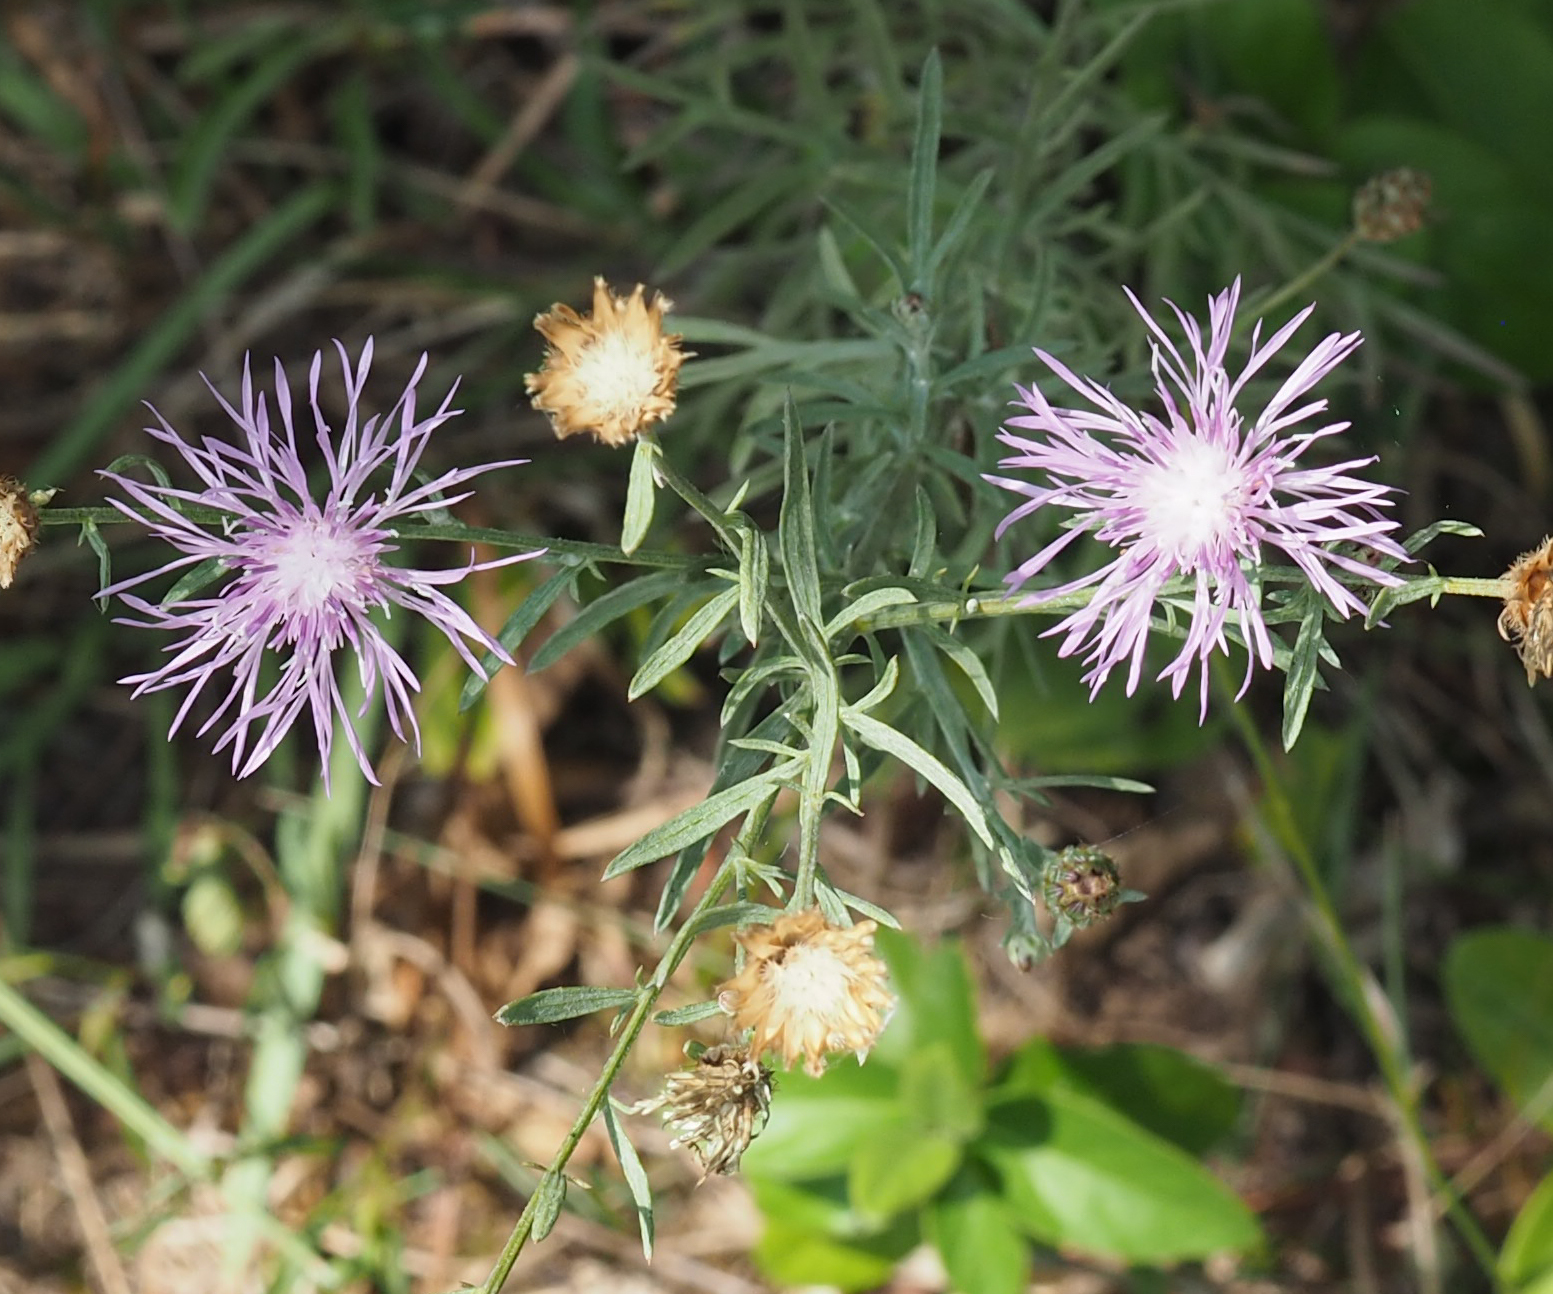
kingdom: Plantae
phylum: Tracheophyta
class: Magnoliopsida
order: Asterales
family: Asteraceae
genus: Centaurea
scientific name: Centaurea stoebe
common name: Spotted knapweed
